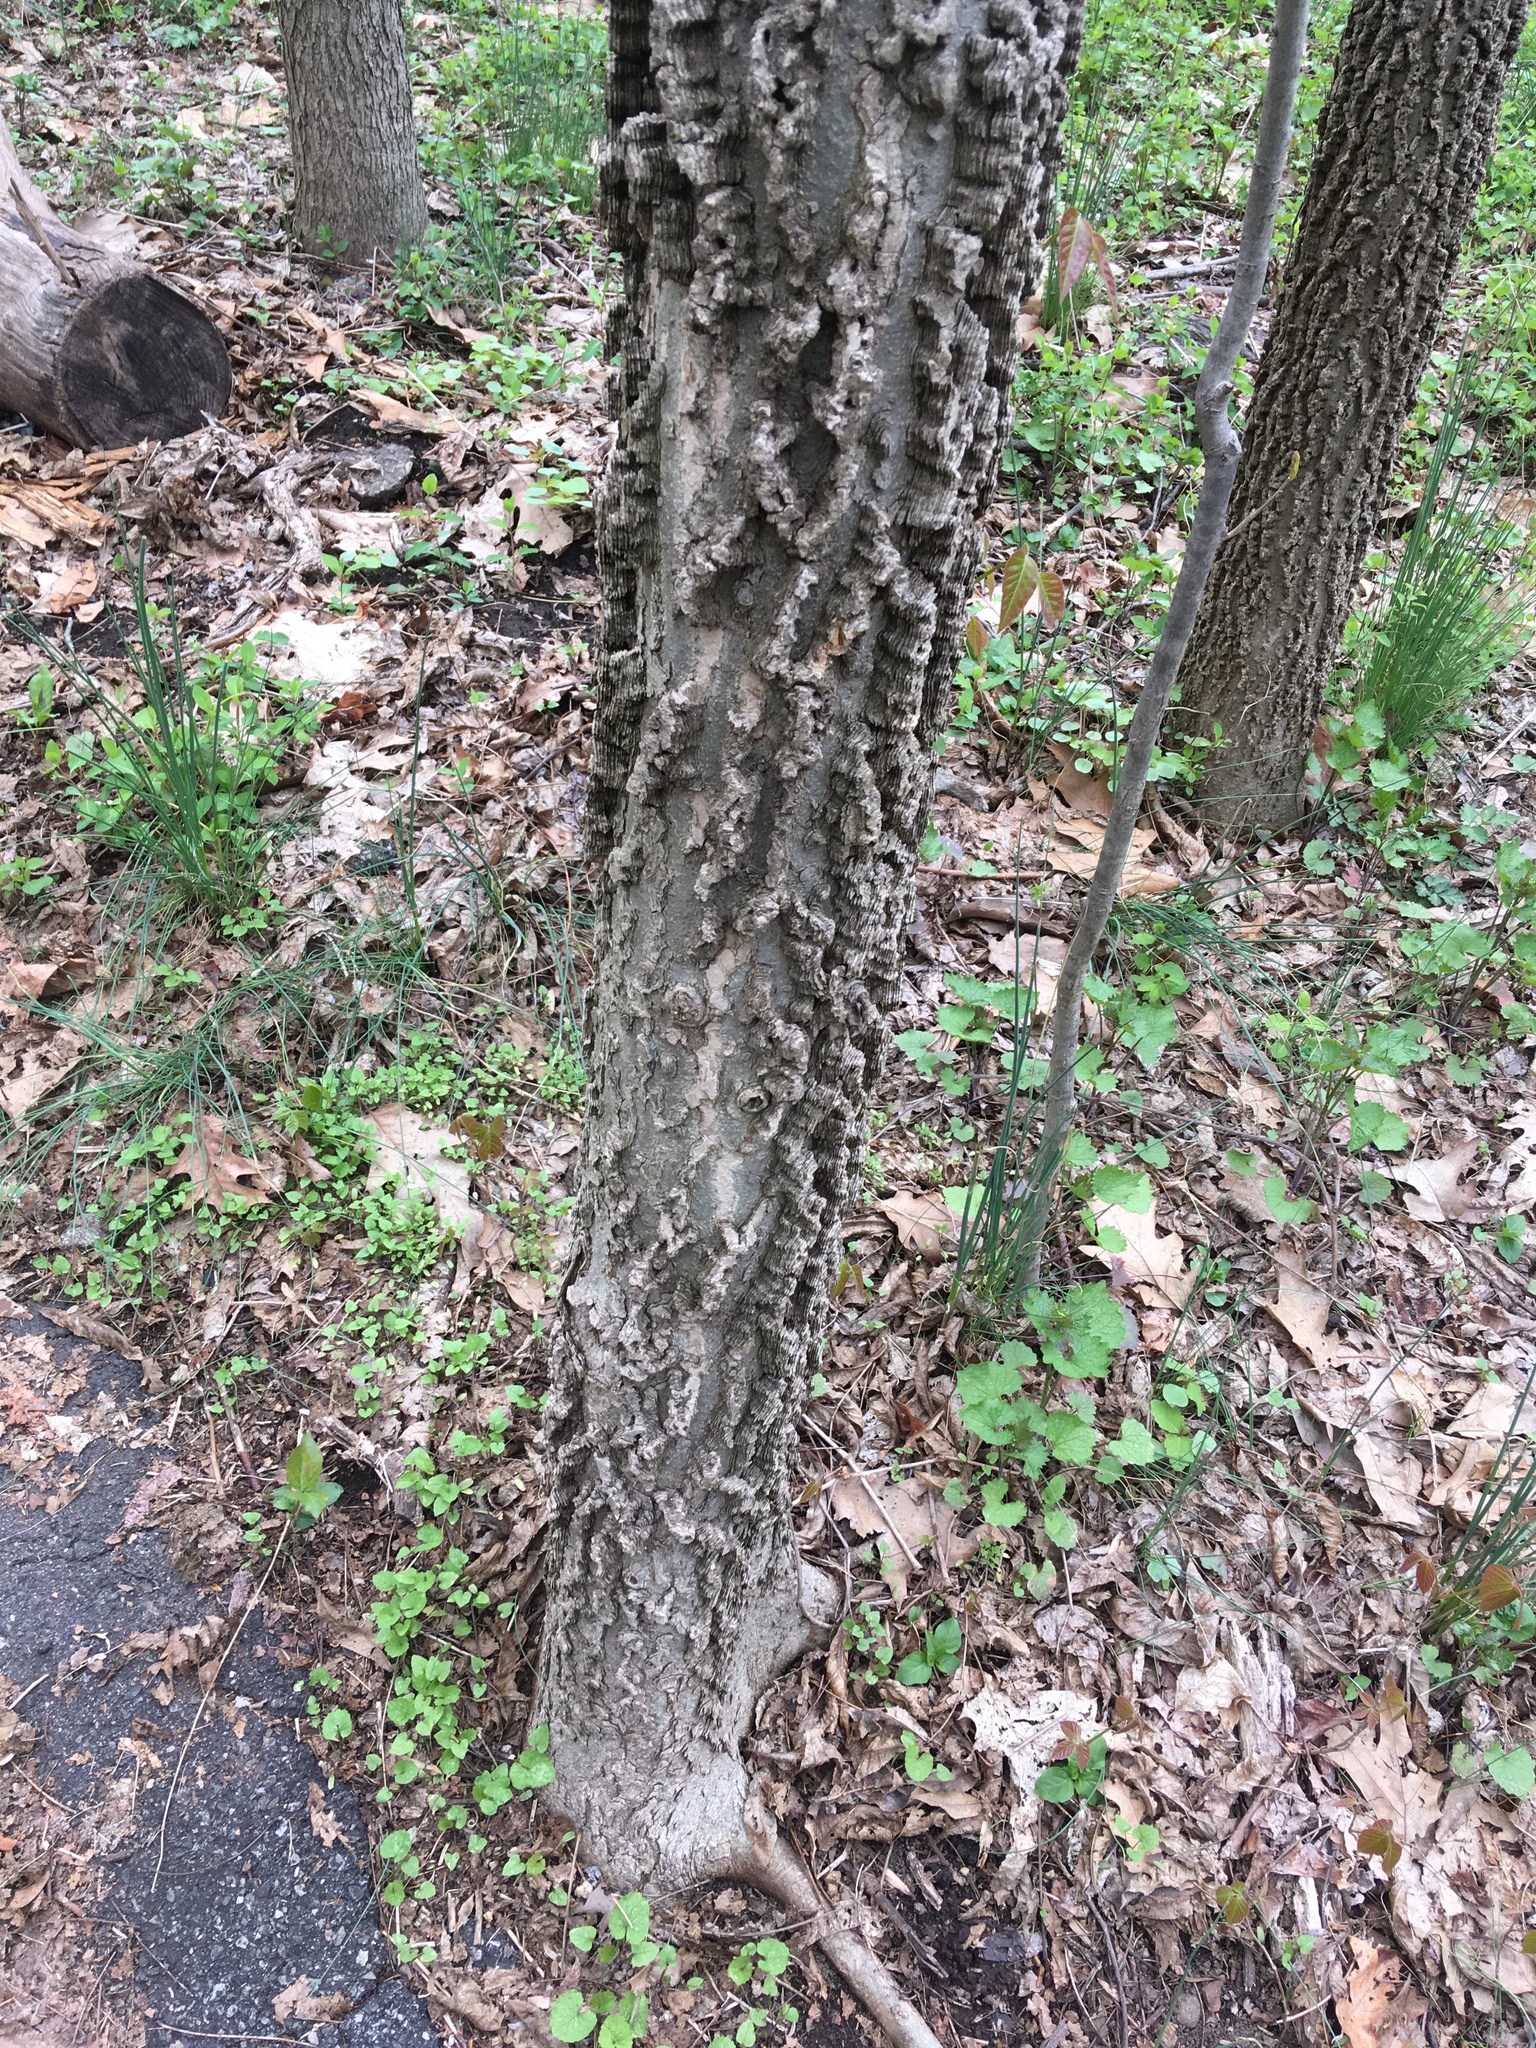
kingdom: Plantae
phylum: Tracheophyta
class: Magnoliopsida
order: Rosales
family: Cannabaceae
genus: Celtis
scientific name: Celtis occidentalis
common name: Common hackberry
